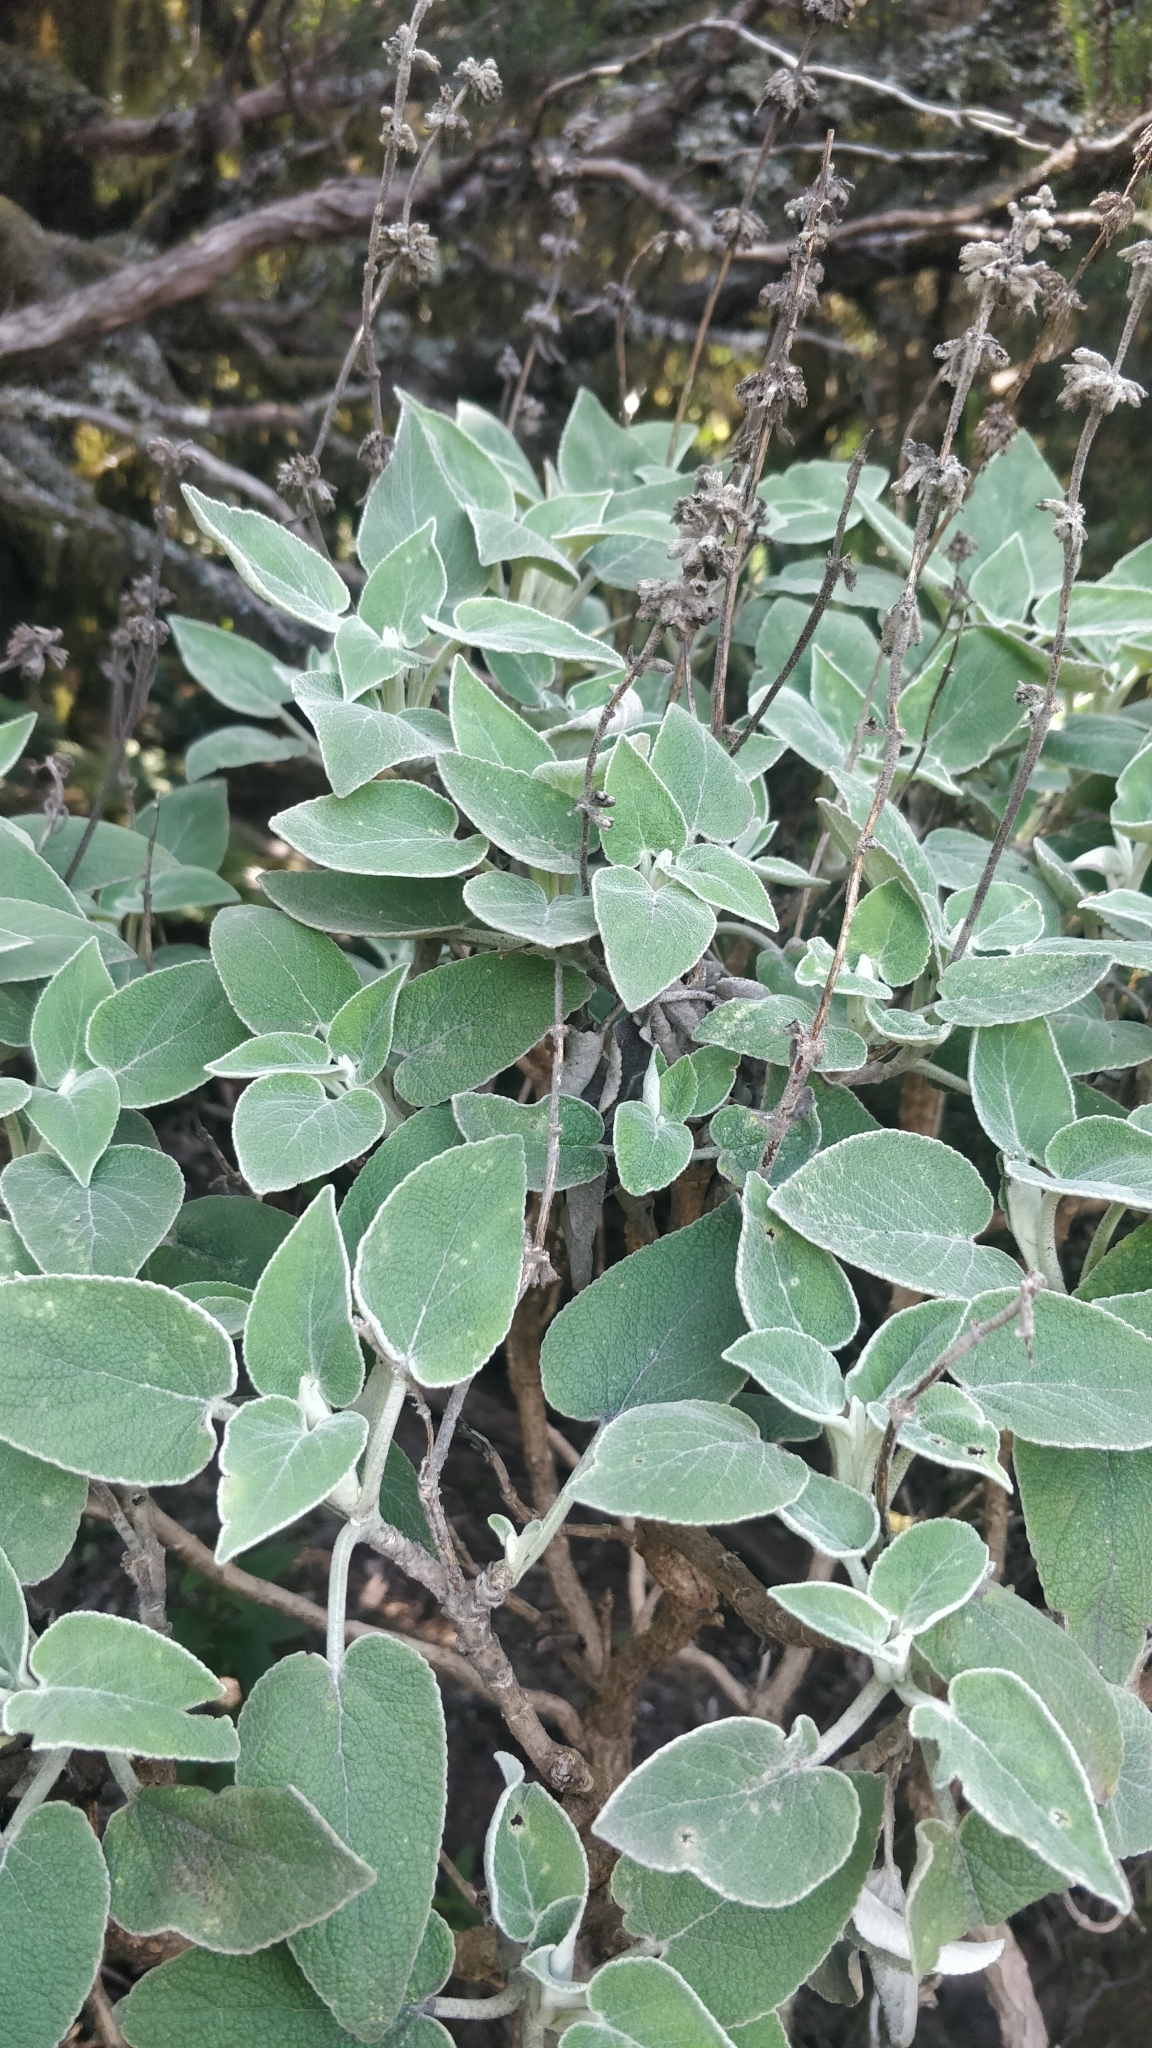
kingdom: Plantae
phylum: Tracheophyta
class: Magnoliopsida
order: Lamiales
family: Lamiaceae
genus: Sideritis
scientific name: Sideritis lotsyi
